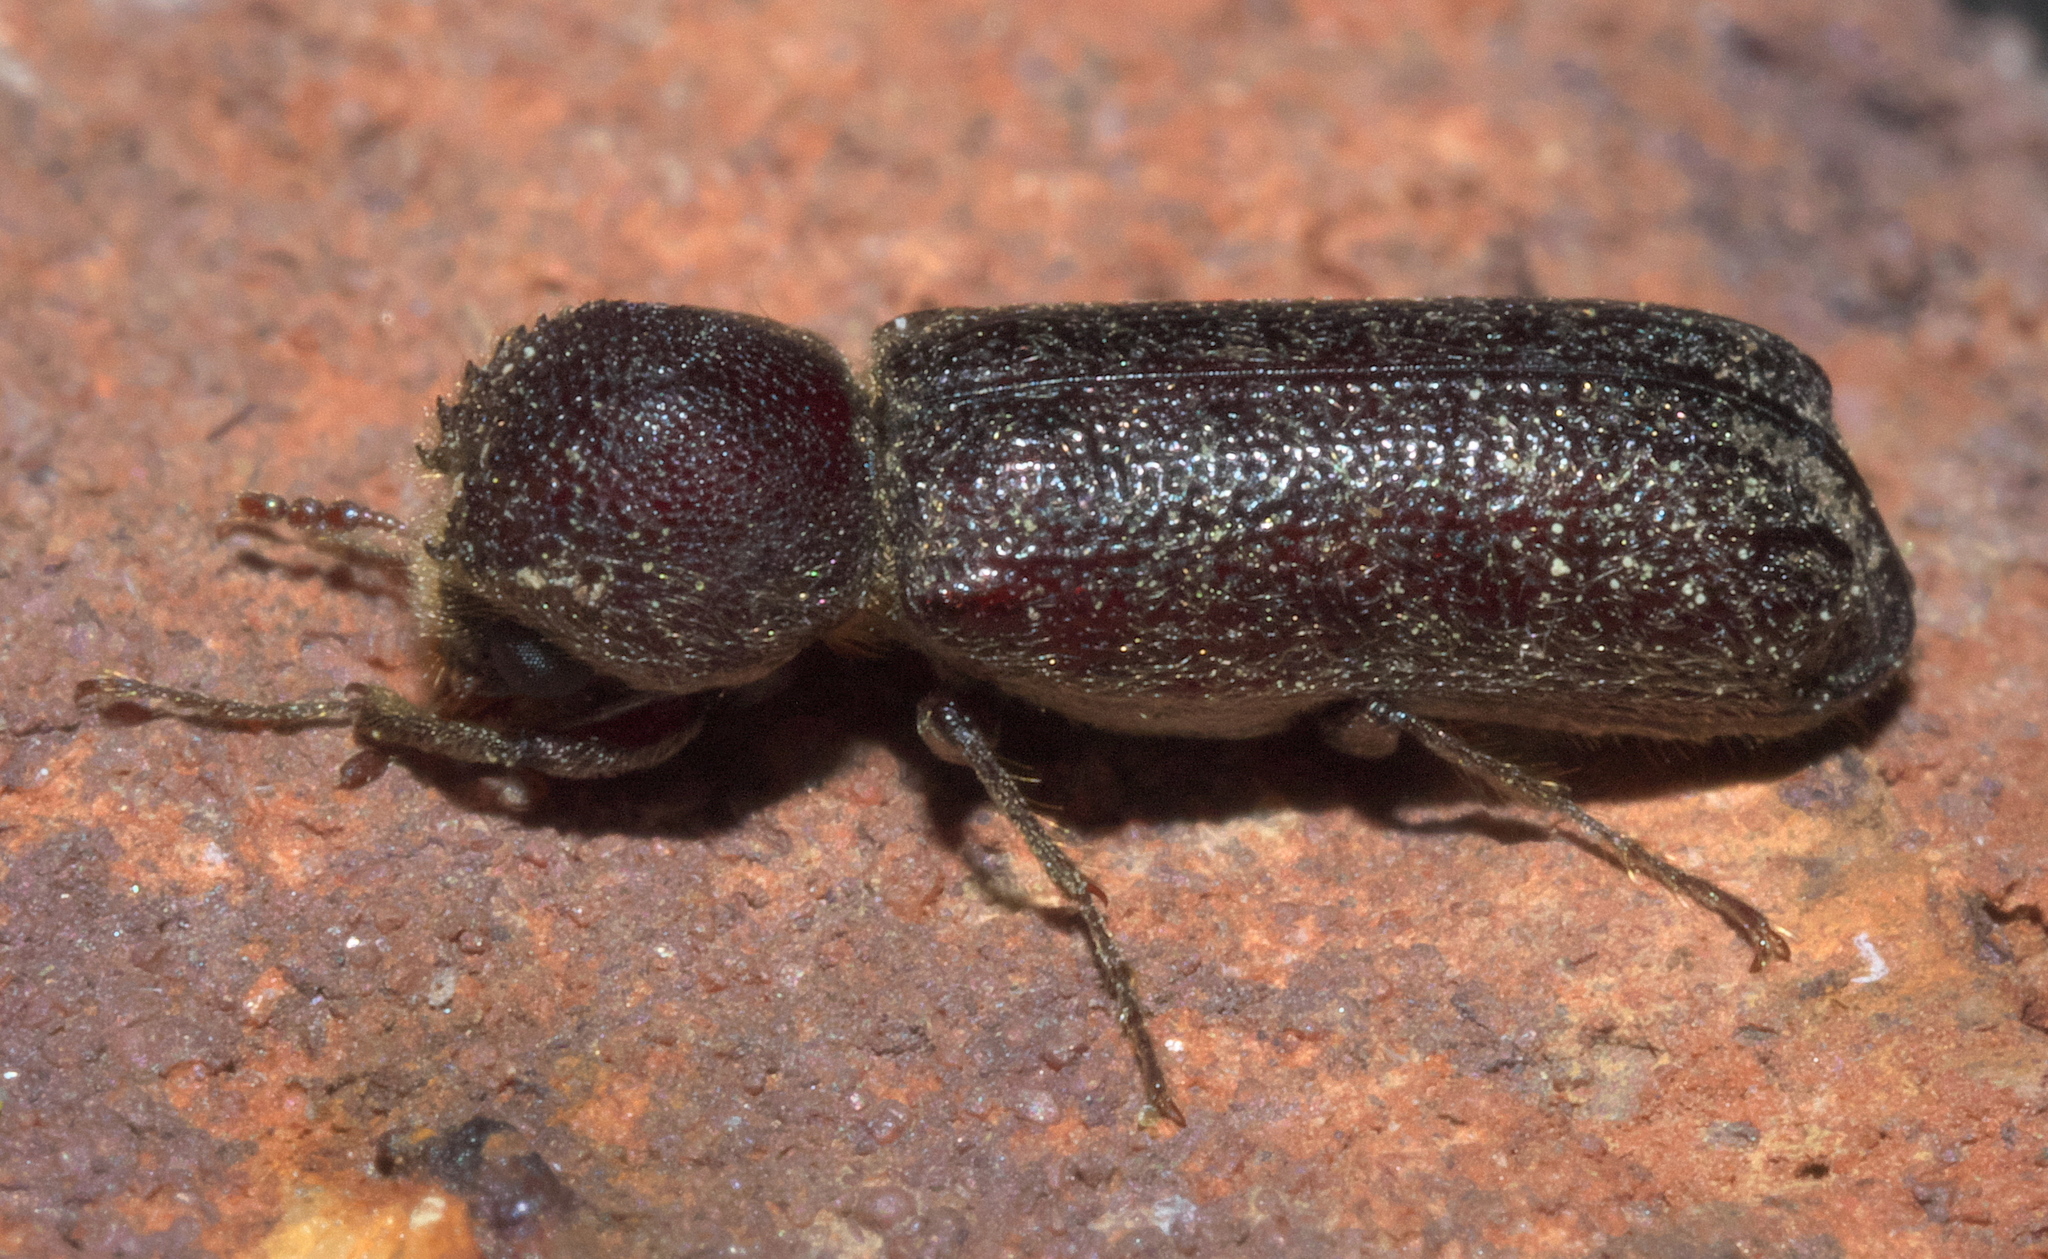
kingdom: Animalia
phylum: Arthropoda
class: Insecta
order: Coleoptera
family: Bostrichidae
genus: Amphicerus
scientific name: Amphicerus bicaudatus
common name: Apple twig borer
